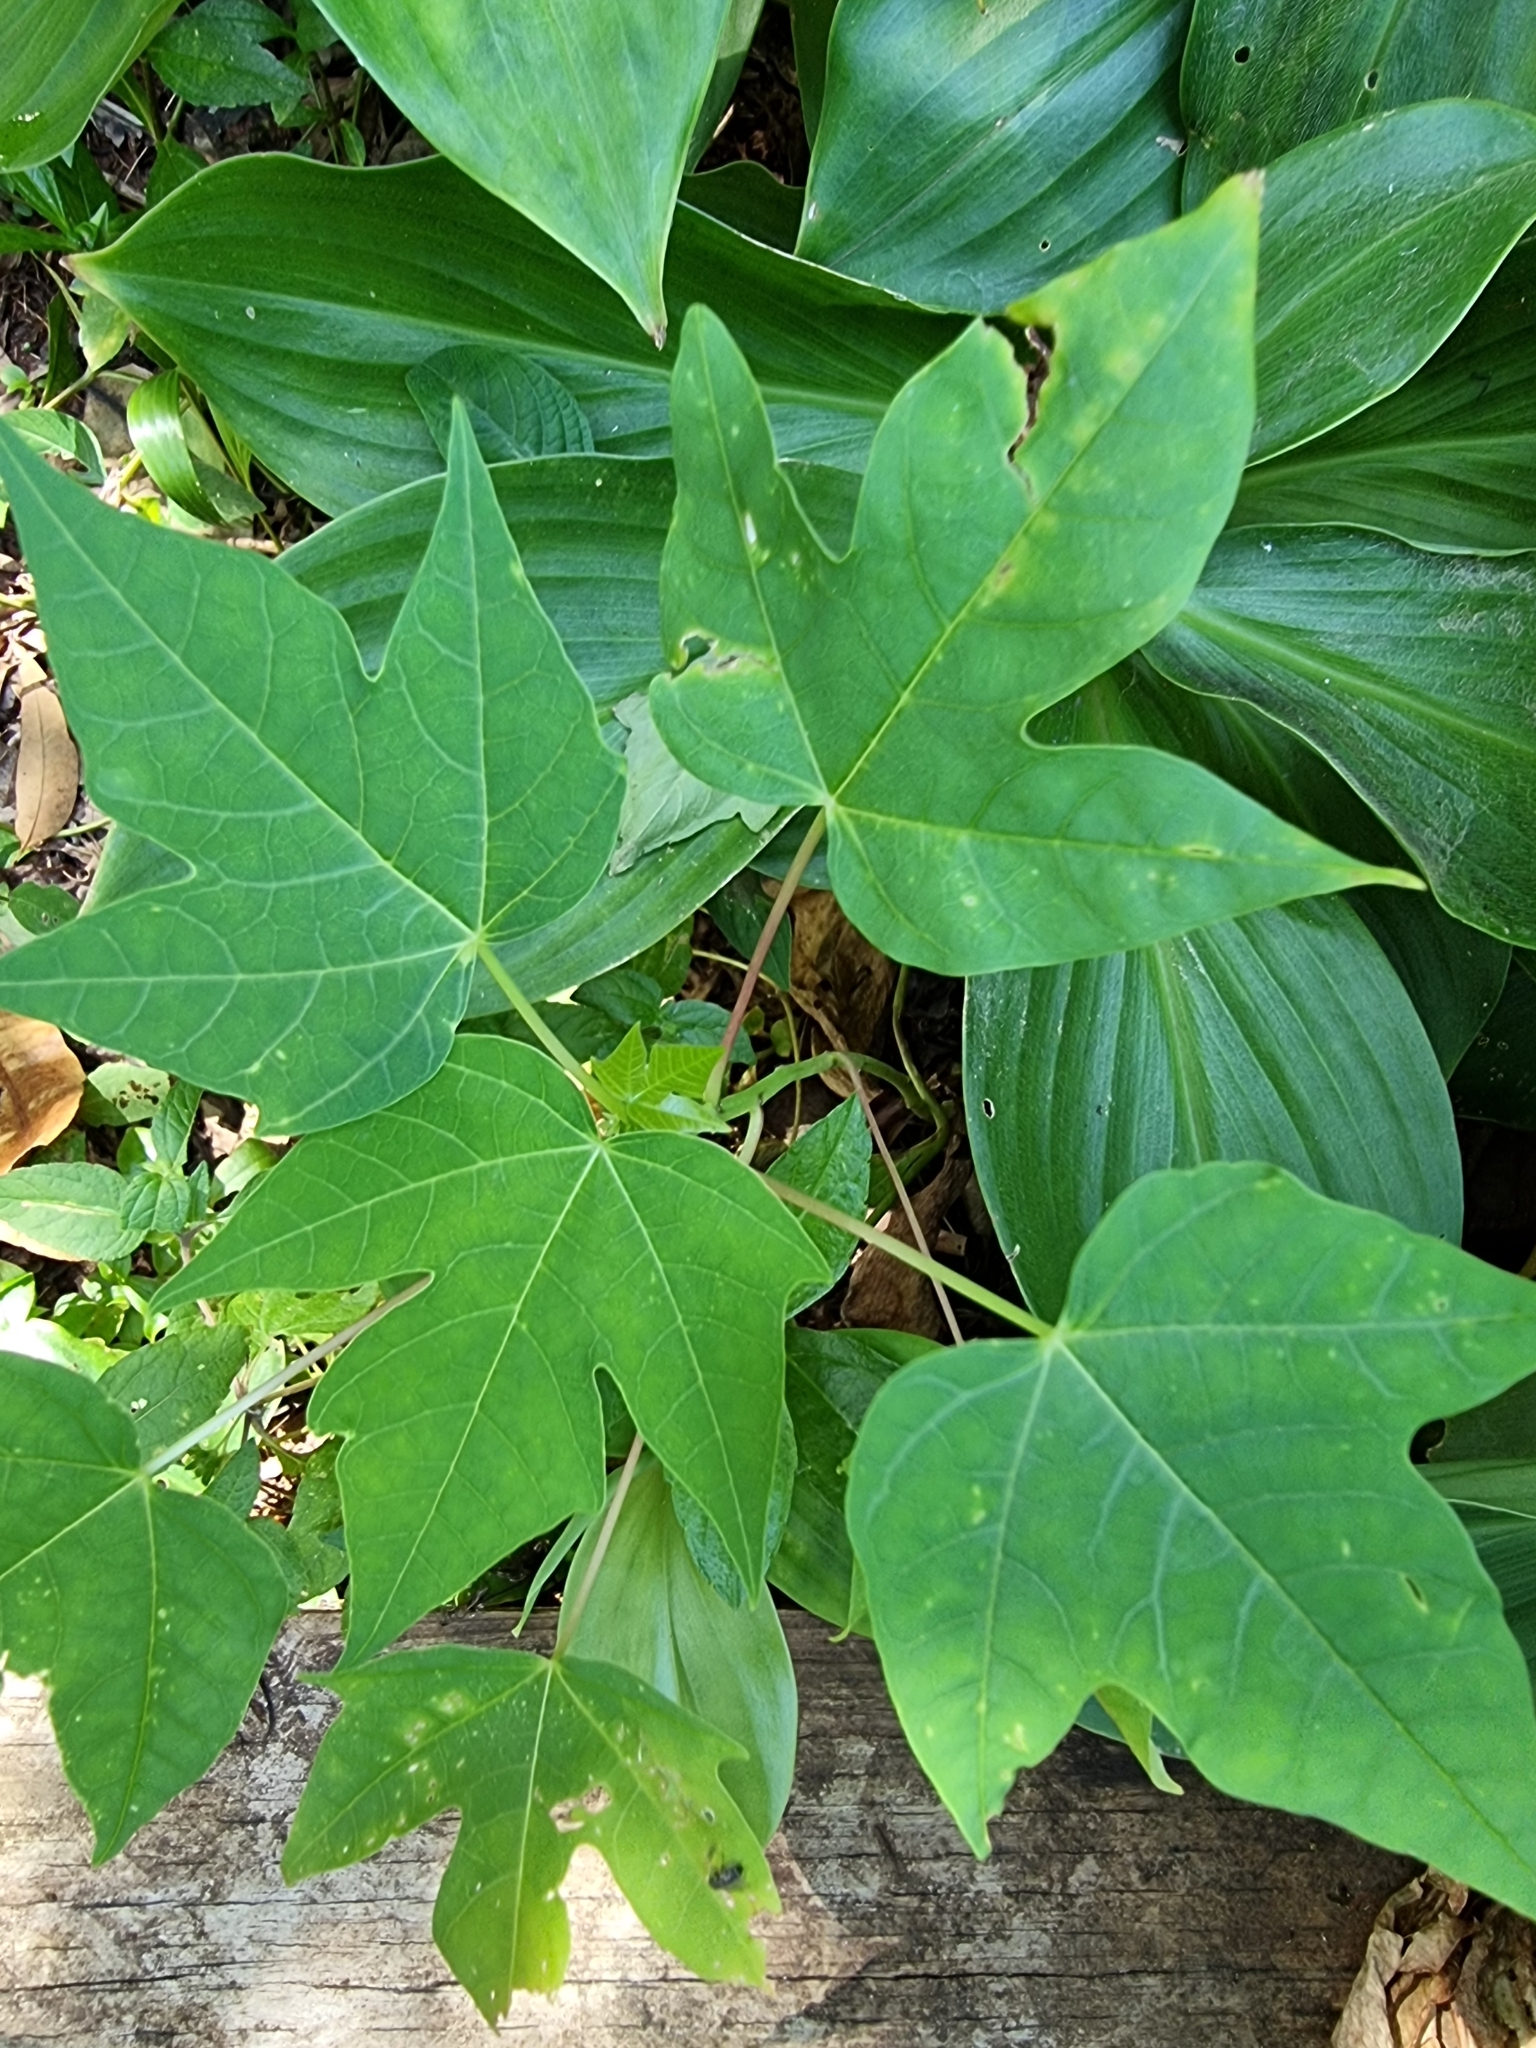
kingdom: Plantae
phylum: Tracheophyta
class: Magnoliopsida
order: Brassicales
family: Caricaceae
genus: Carica
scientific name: Carica papaya
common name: Papaya
